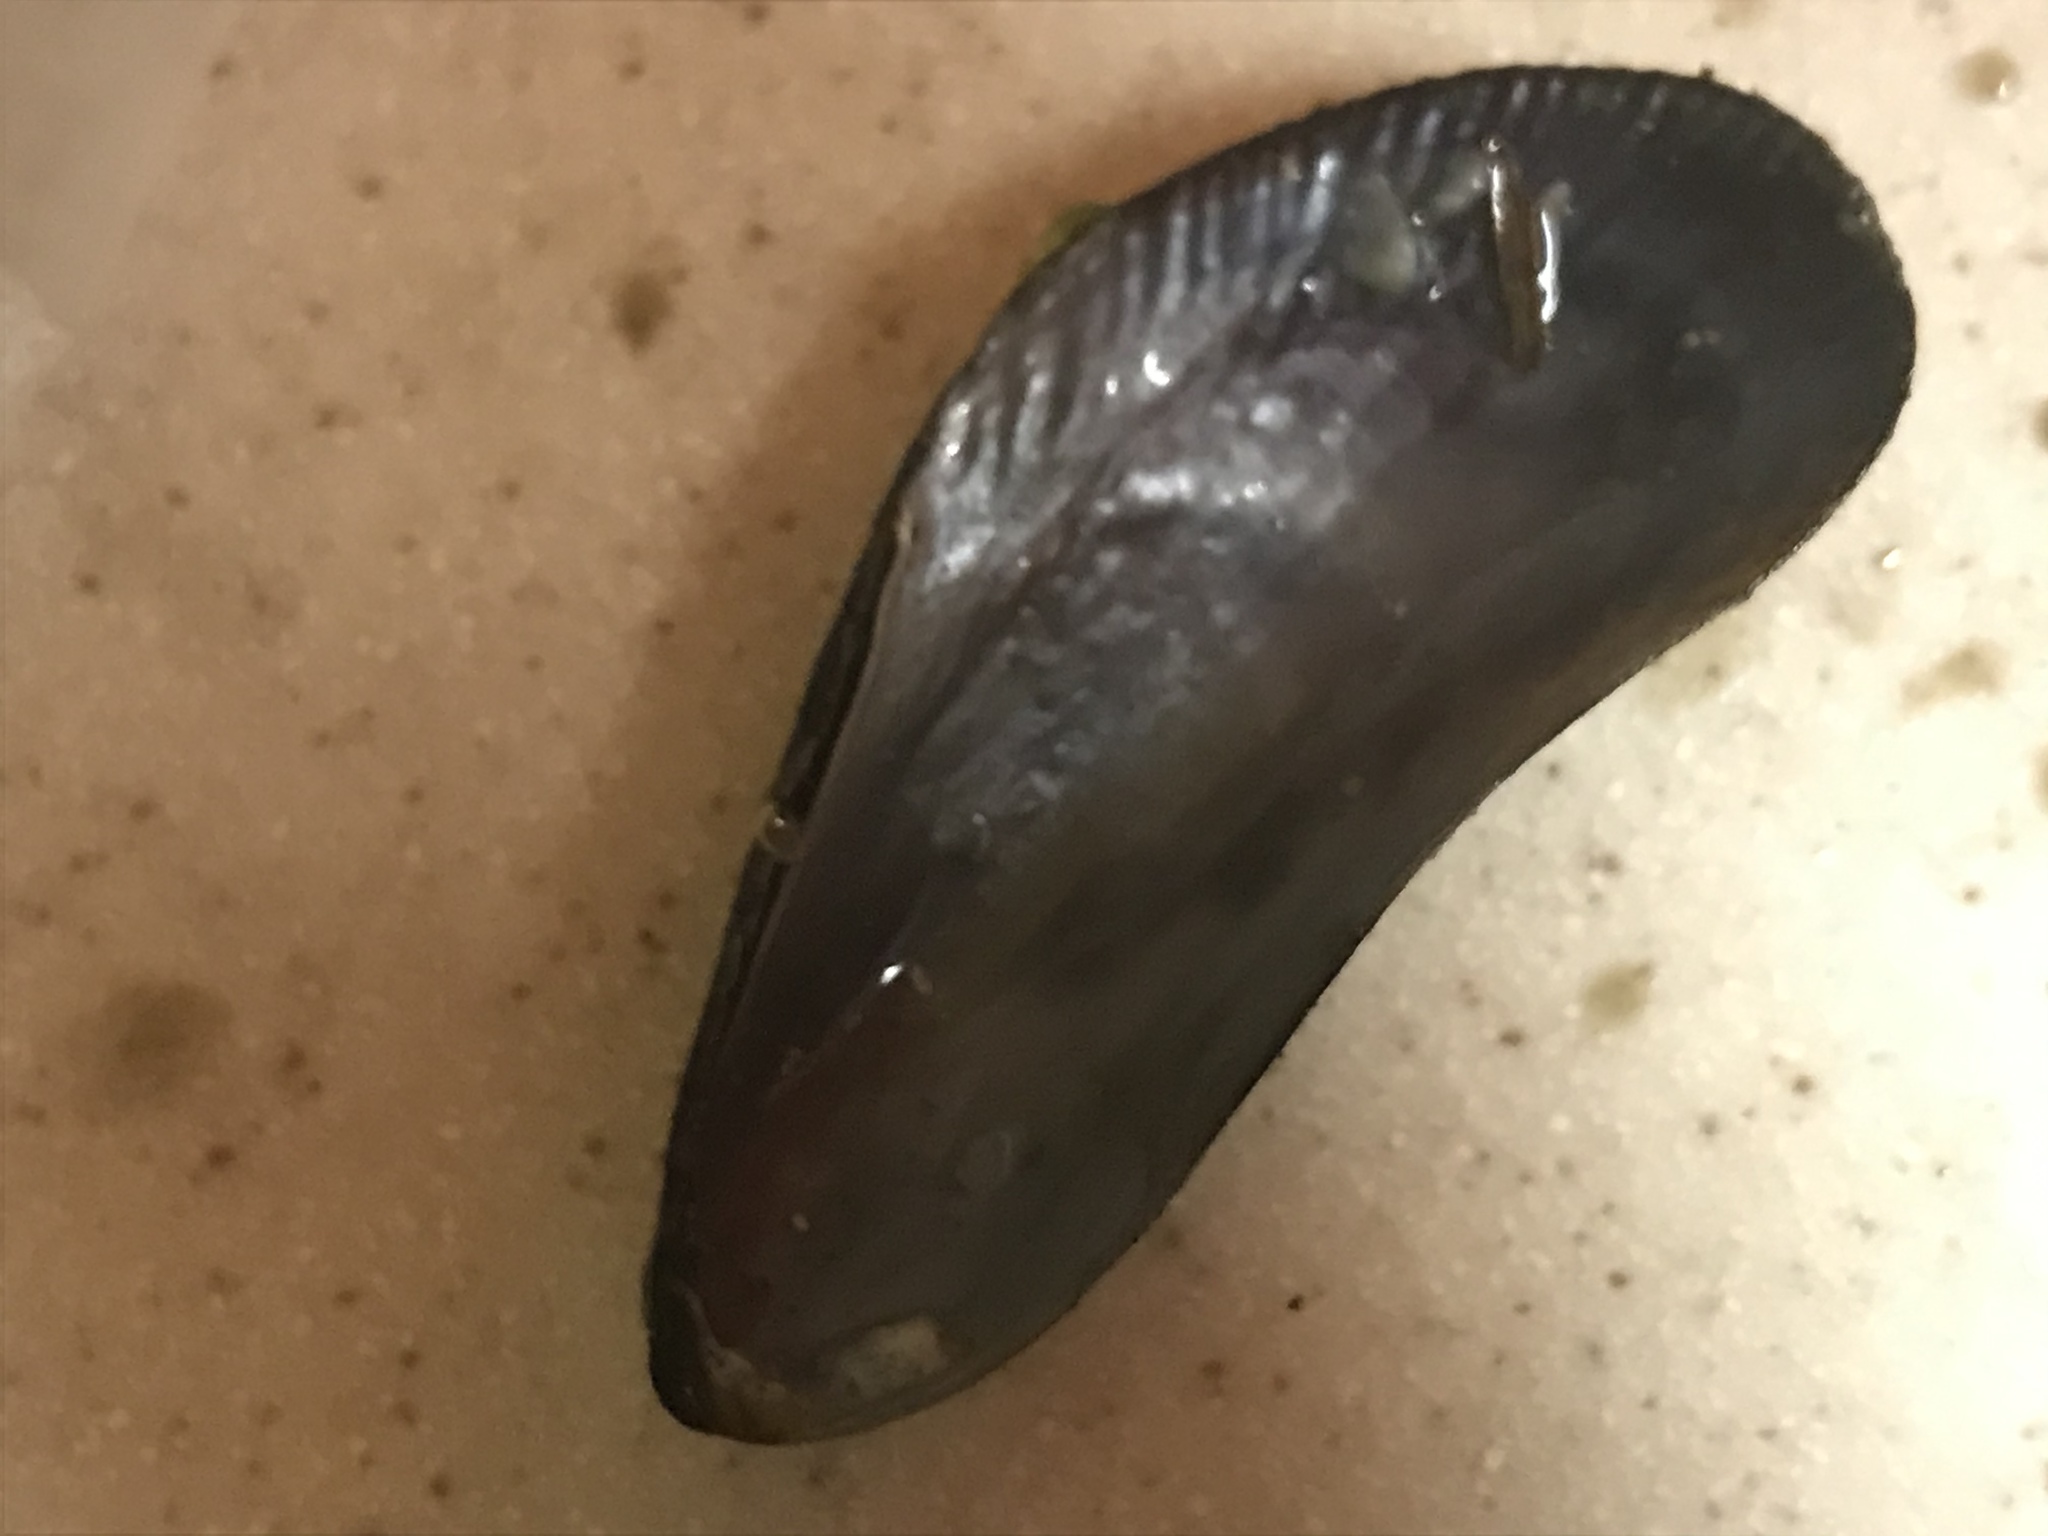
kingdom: Animalia
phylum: Mollusca
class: Bivalvia
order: Mytilida
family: Mytilidae
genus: Geukensia
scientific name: Geukensia demissa
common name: Ribbed mussel
